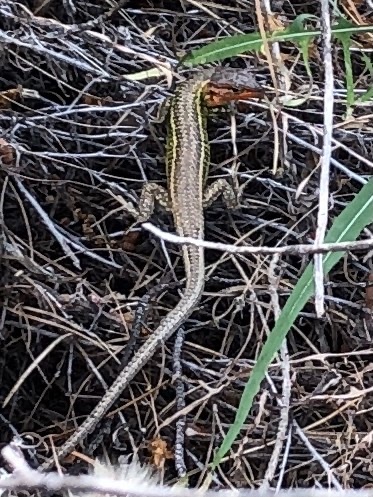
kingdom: Animalia
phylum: Chordata
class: Squamata
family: Lacertidae
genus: Psammodromus
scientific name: Psammodromus algirus
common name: Algerian psammodromus
